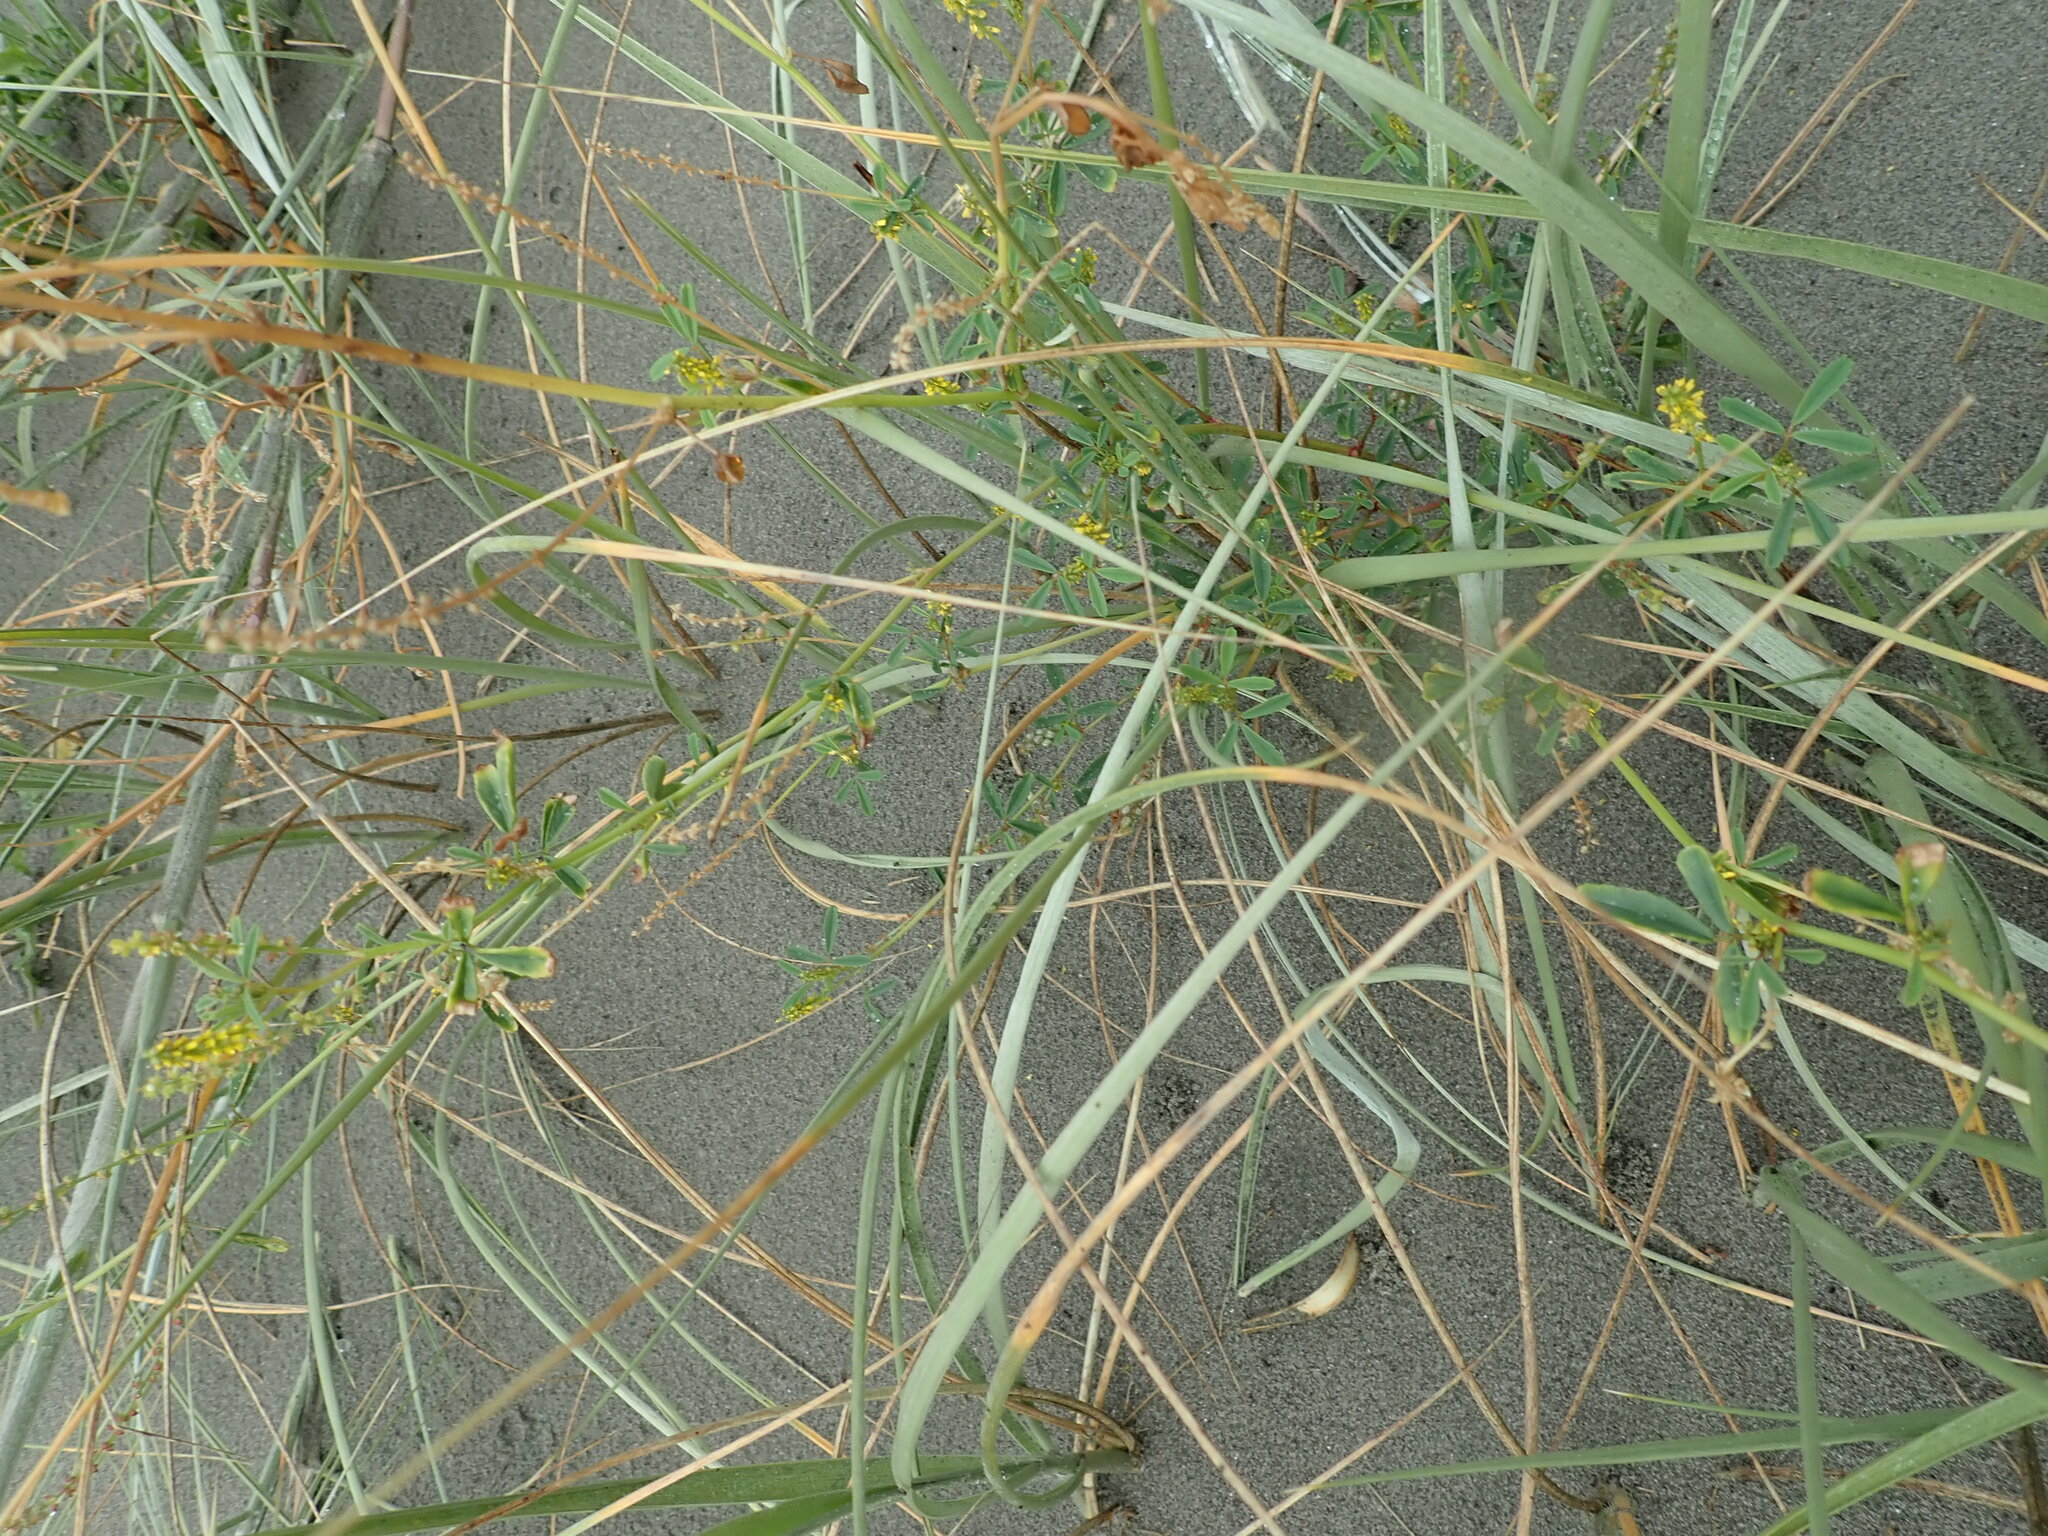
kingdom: Plantae
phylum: Tracheophyta
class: Magnoliopsida
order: Fabales
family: Fabaceae
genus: Melilotus
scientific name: Melilotus indicus
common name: Small melilot
